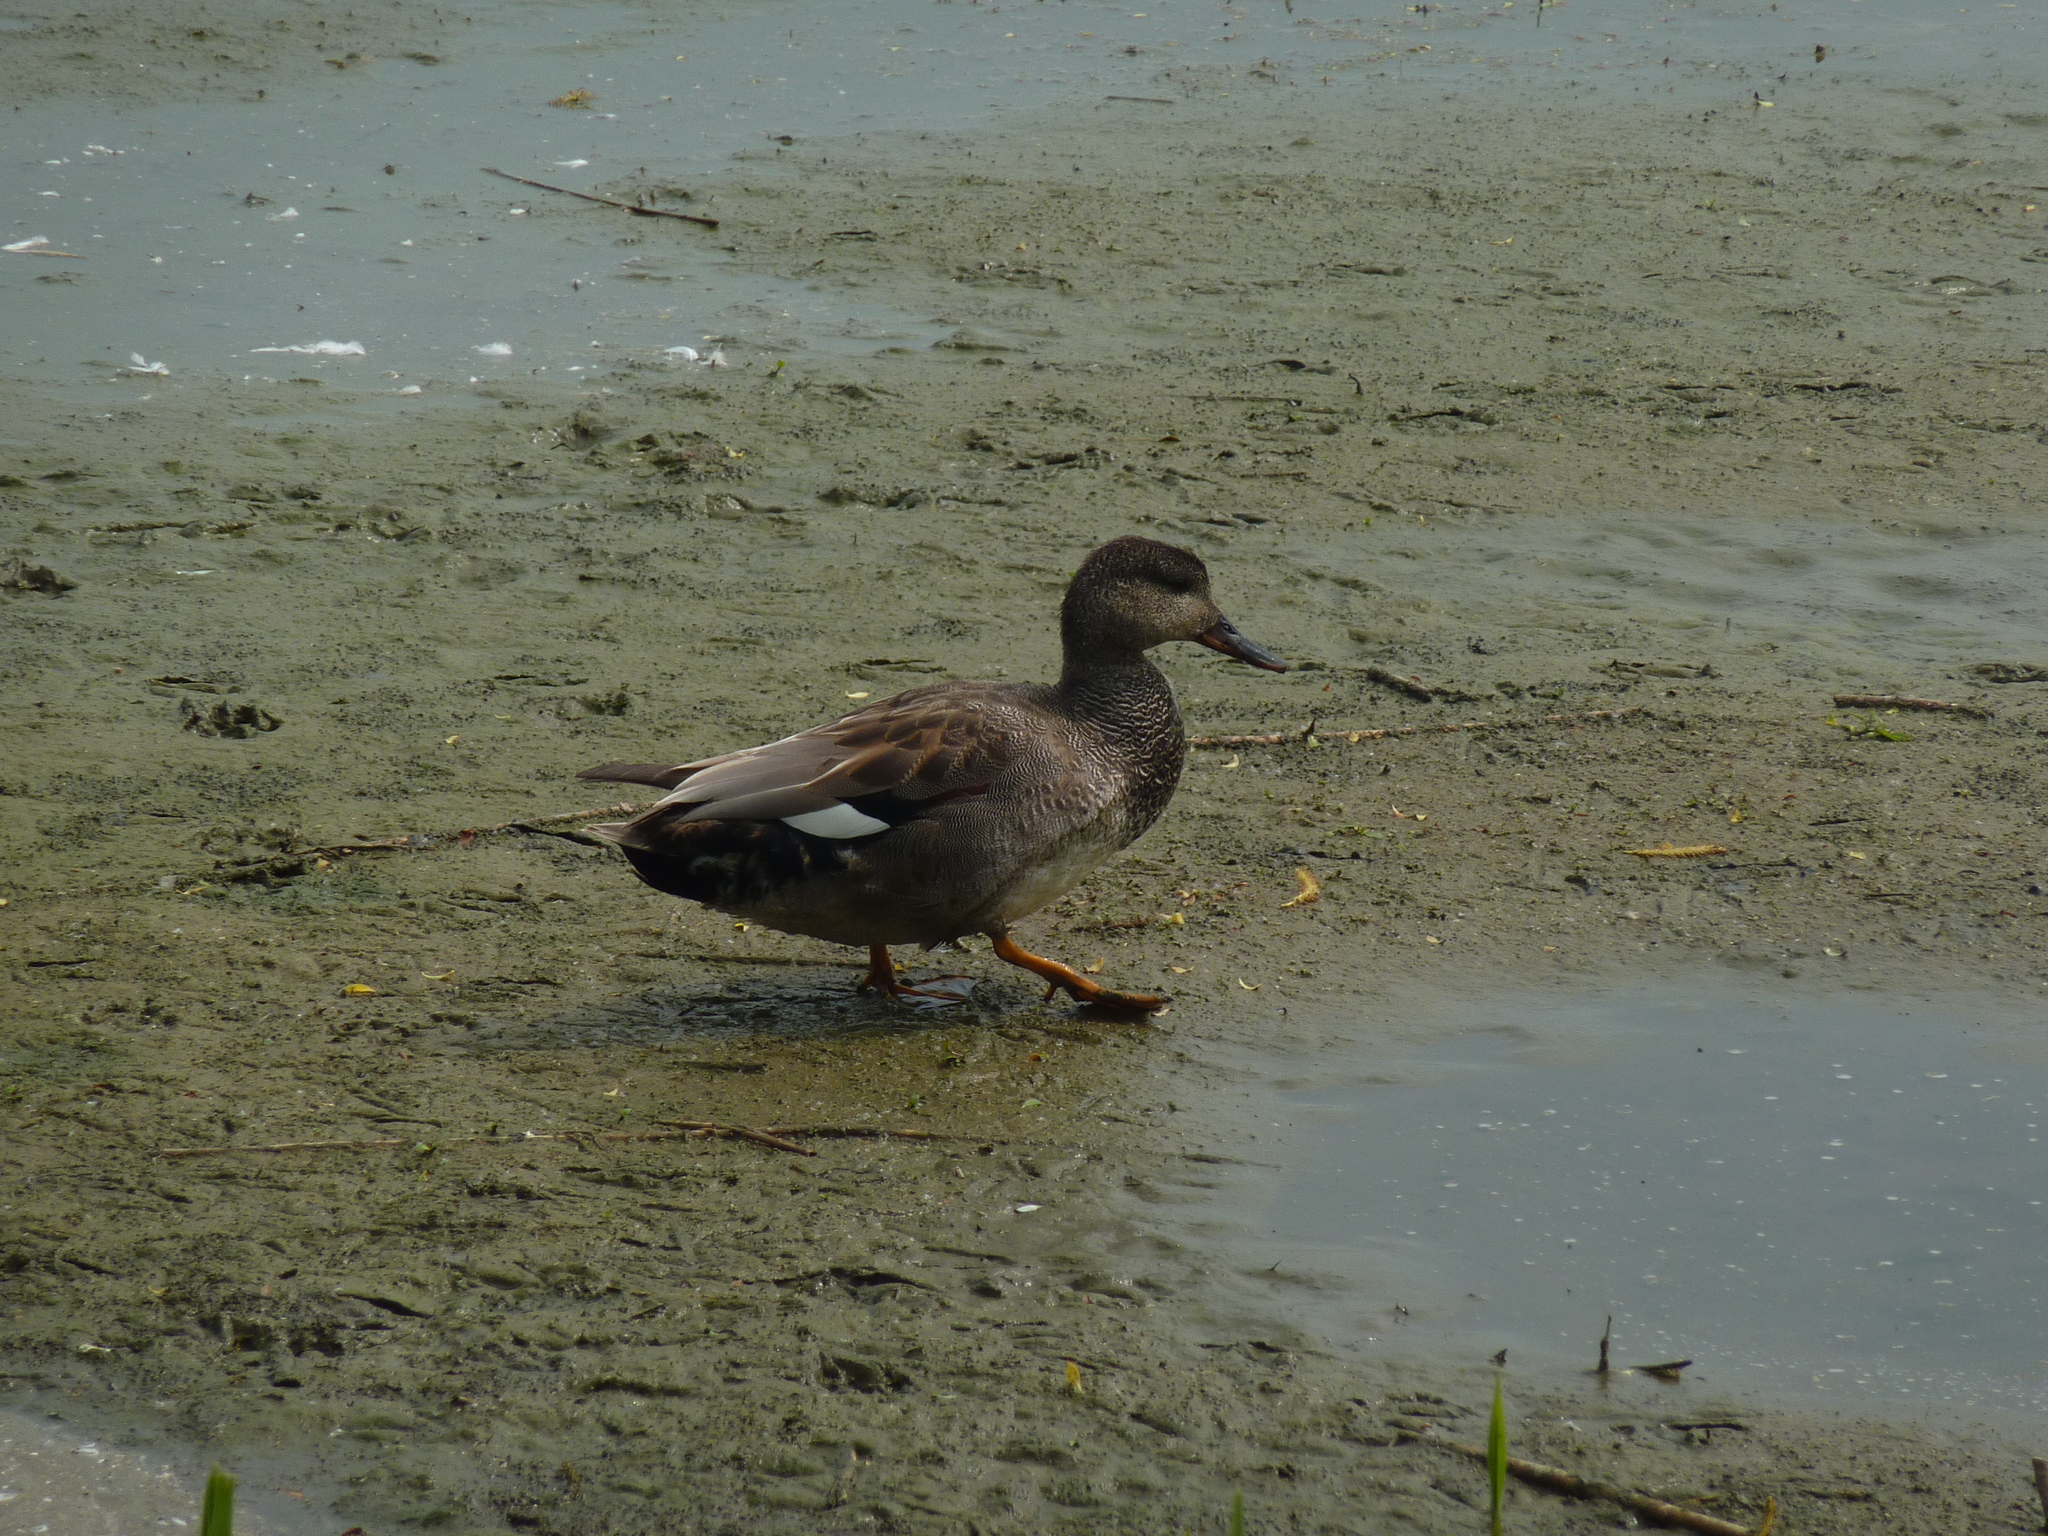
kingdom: Animalia
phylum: Chordata
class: Aves
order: Anseriformes
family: Anatidae
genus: Mareca
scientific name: Mareca strepera
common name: Gadwall
